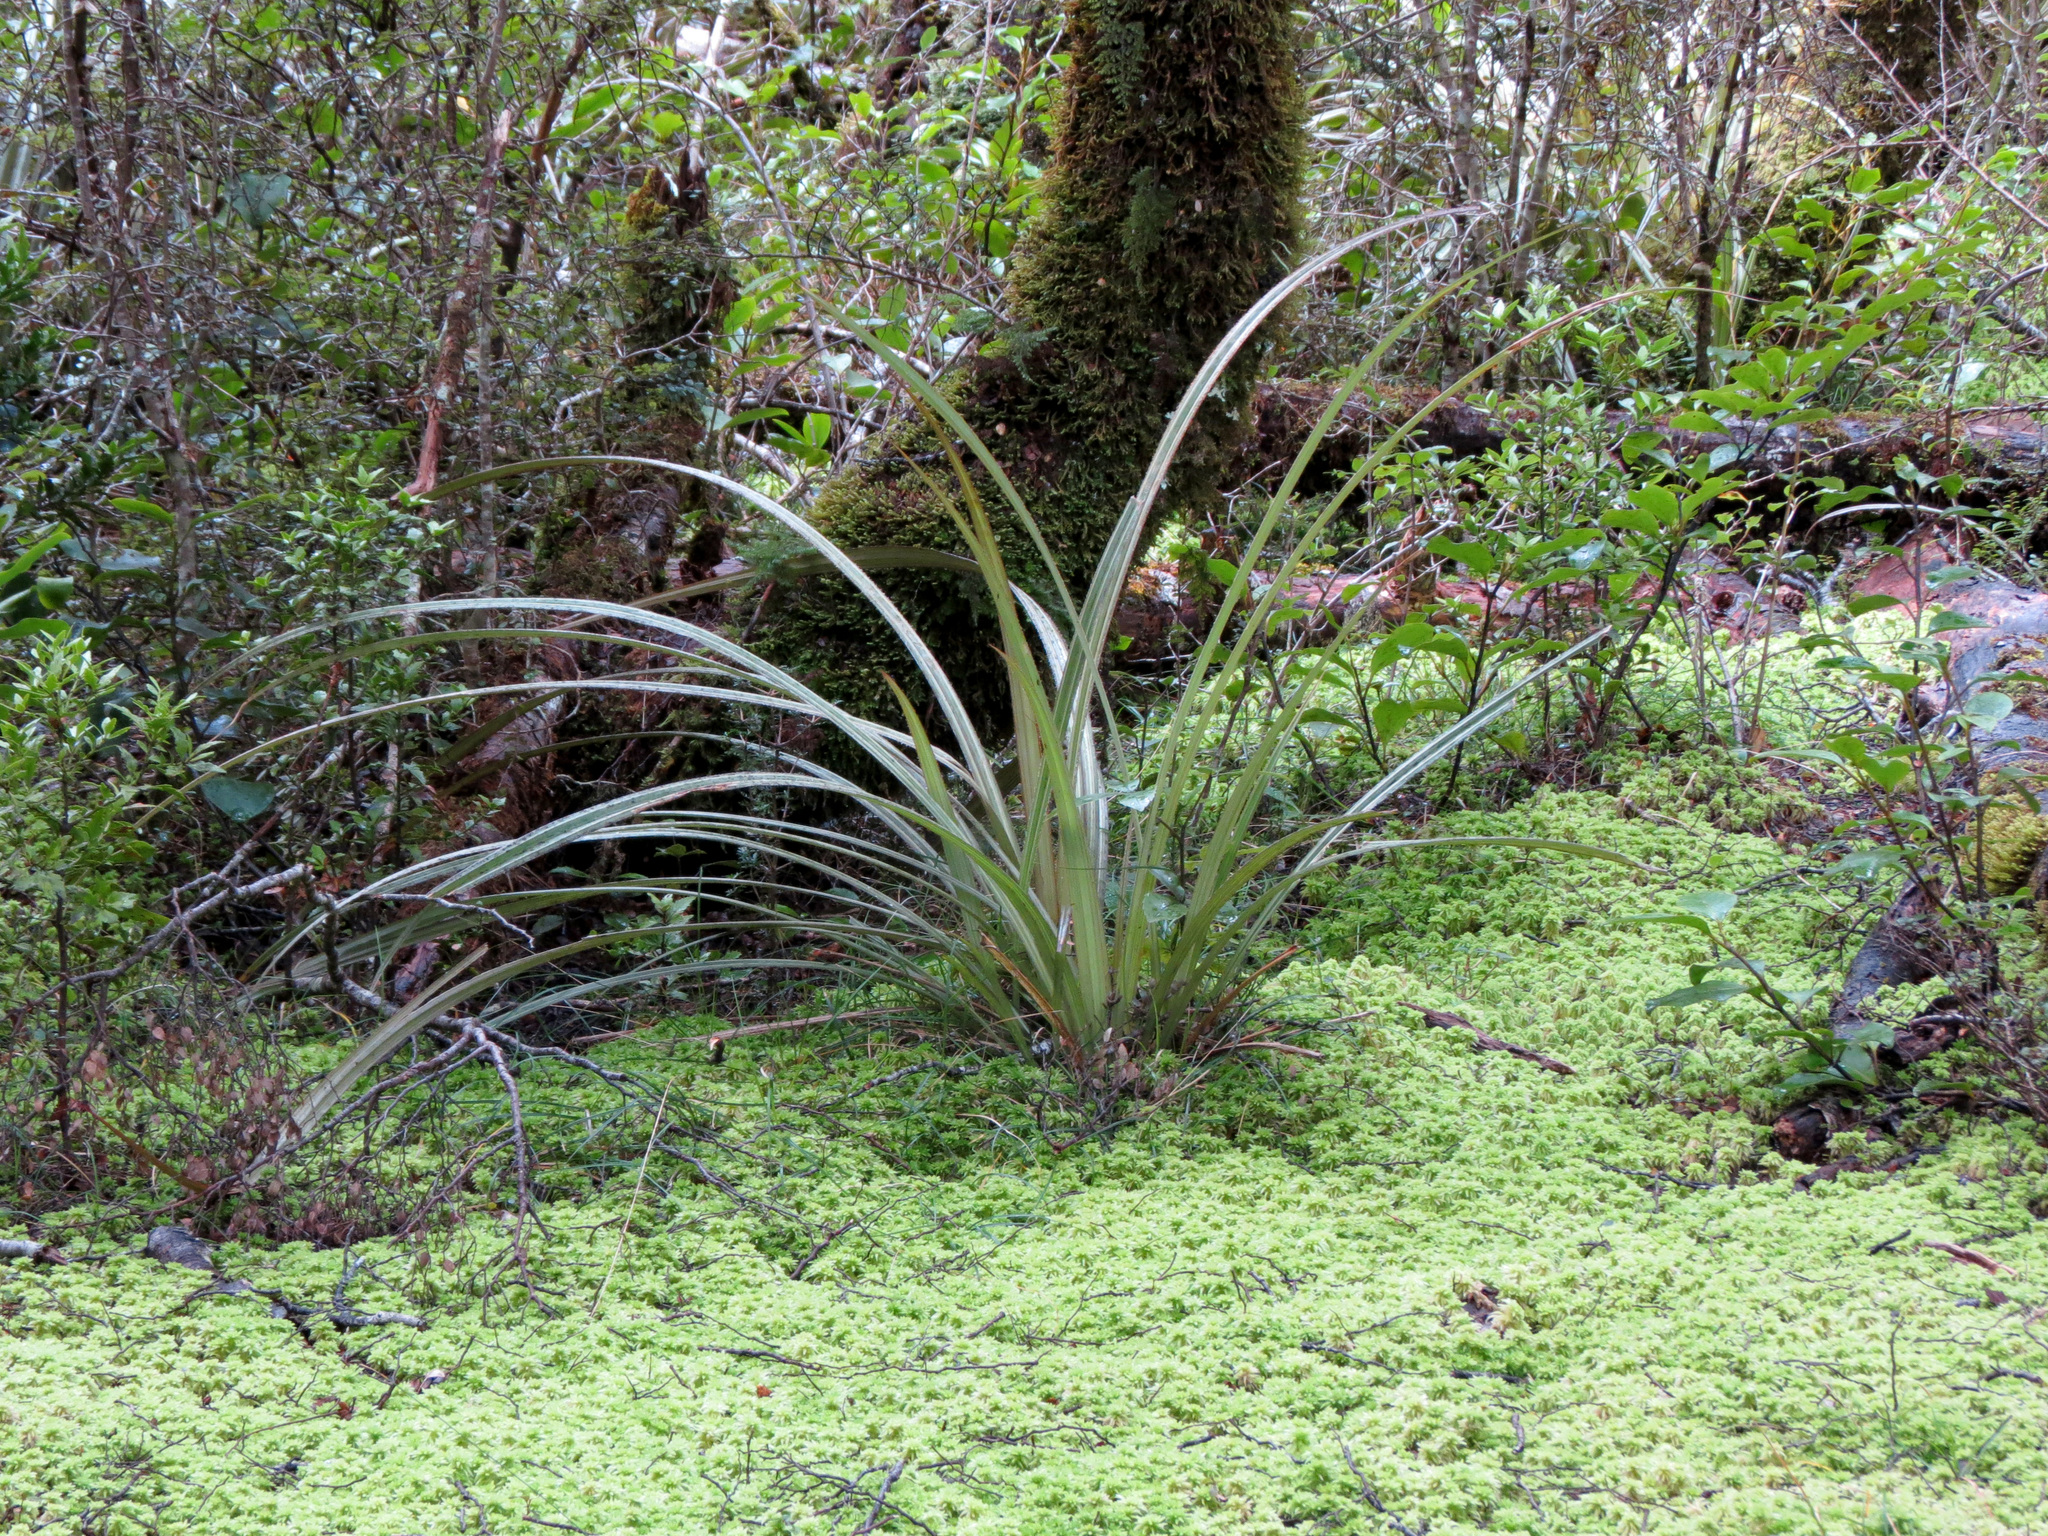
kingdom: Plantae
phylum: Tracheophyta
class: Liliopsida
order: Asparagales
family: Asteliaceae
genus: Astelia
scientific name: Astelia nervosa
